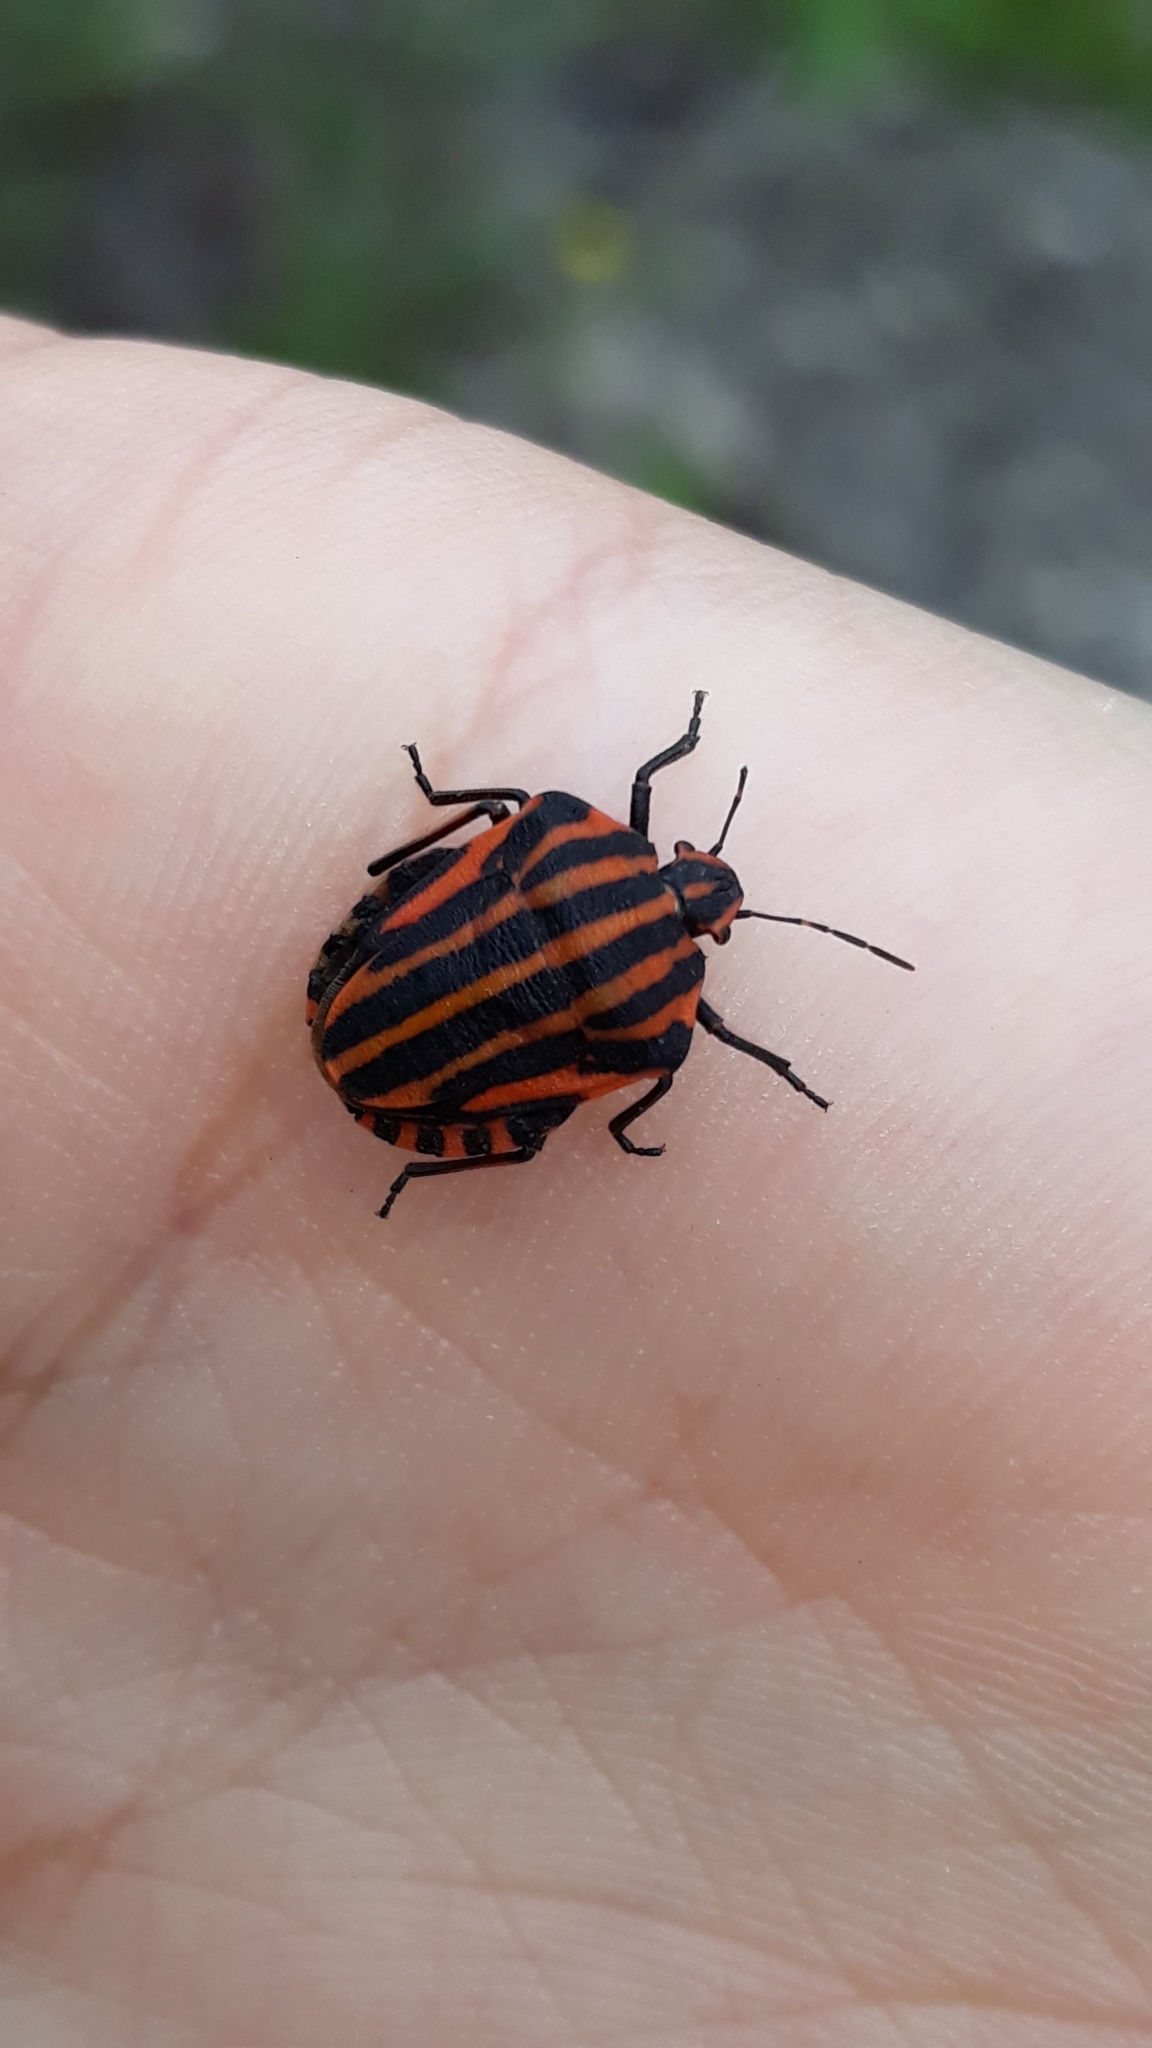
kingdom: Animalia
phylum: Arthropoda
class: Insecta
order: Hemiptera
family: Pentatomidae
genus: Graphosoma
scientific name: Graphosoma italicum
